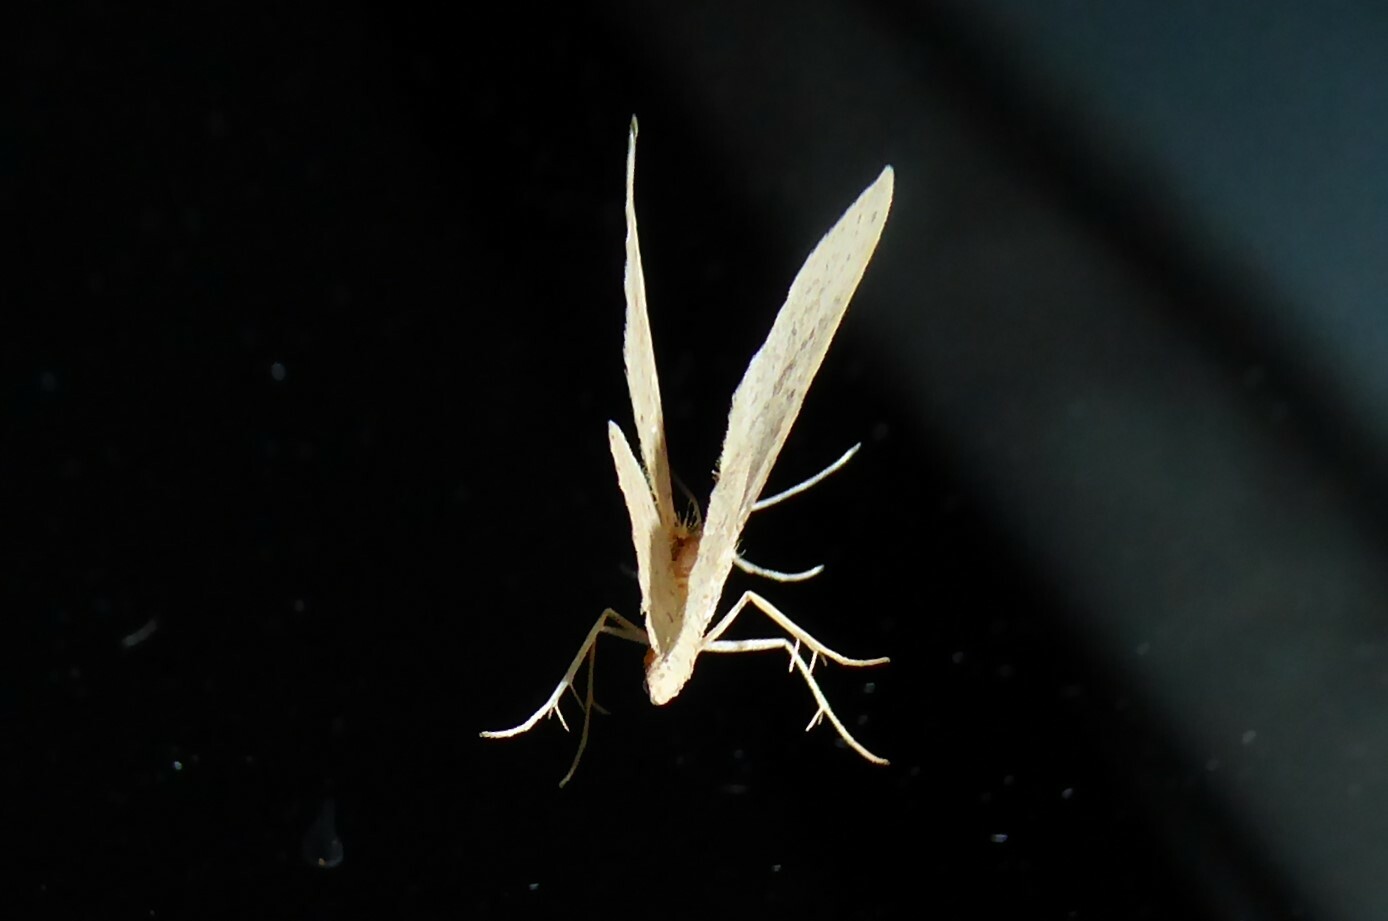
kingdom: Animalia
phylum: Arthropoda
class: Insecta
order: Lepidoptera
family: Geometridae
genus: Epicyme
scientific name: Epicyme rubropunctaria
